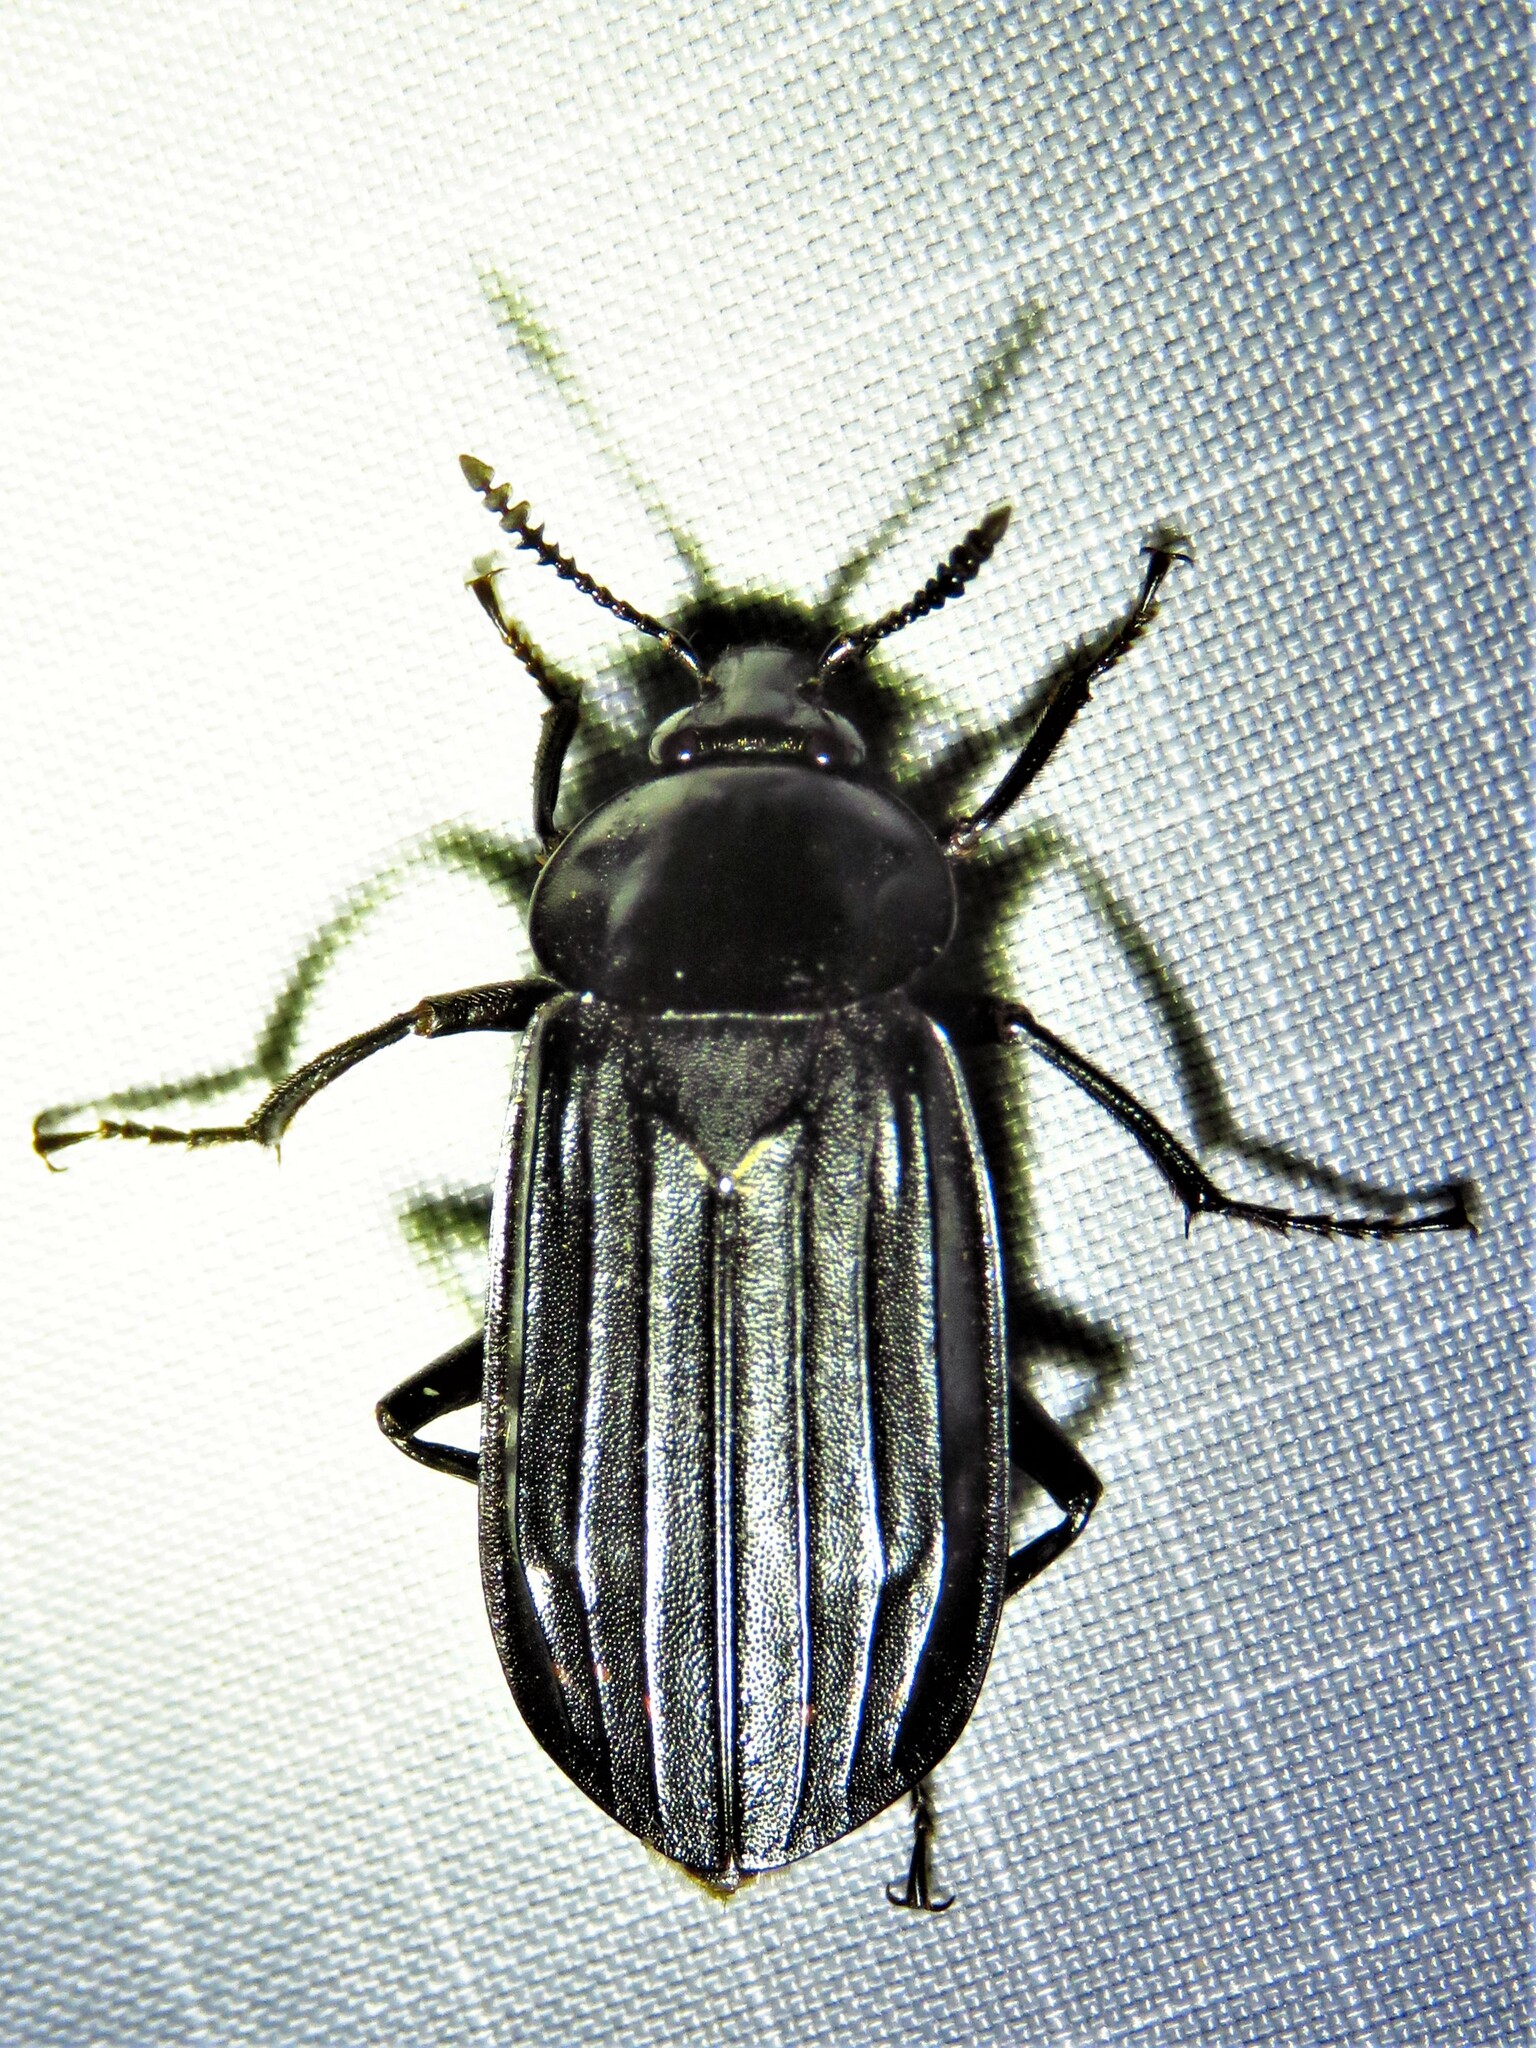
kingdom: Animalia
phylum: Arthropoda
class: Insecta
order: Coleoptera
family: Staphylinidae
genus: Necrodes
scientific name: Necrodes surinamensis
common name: Red-lined carrion beetle
